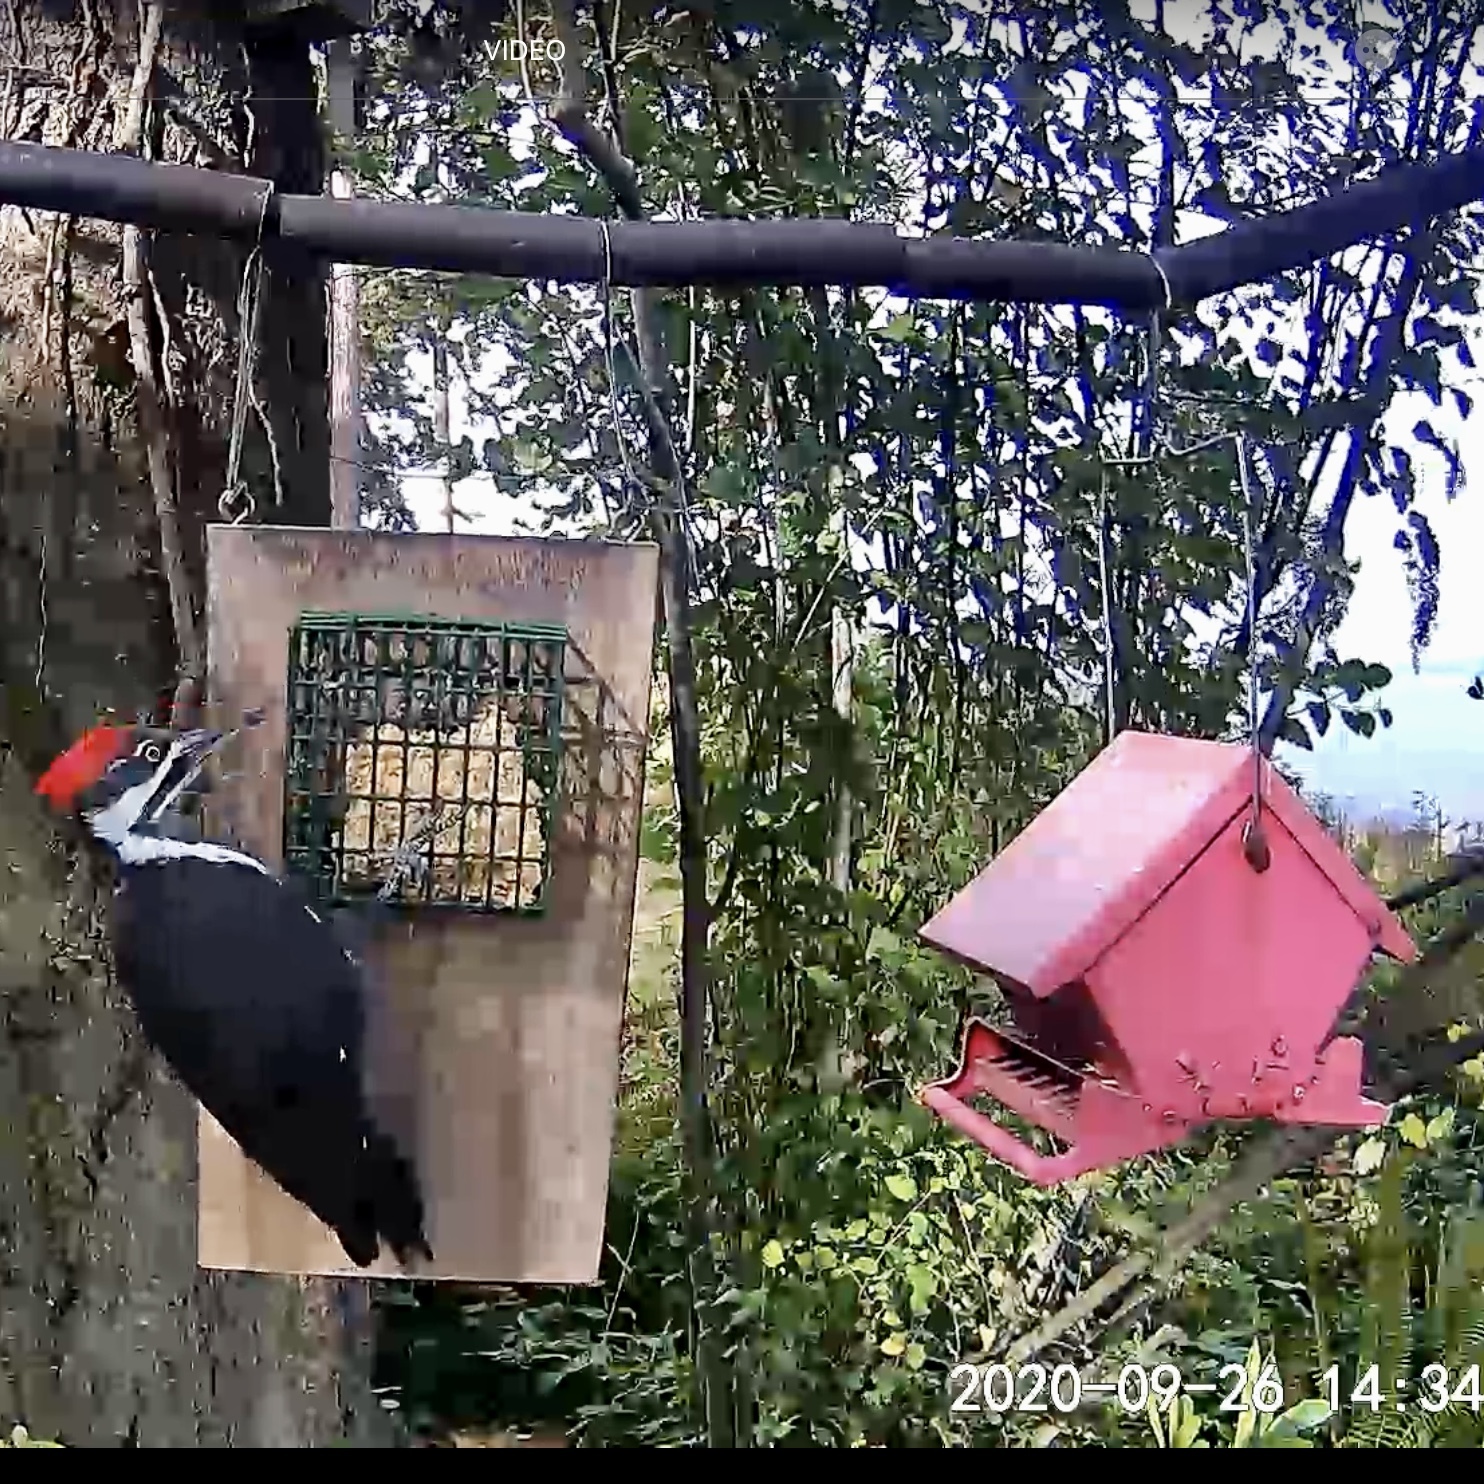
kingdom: Animalia
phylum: Chordata
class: Aves
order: Piciformes
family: Picidae
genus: Dryocopus
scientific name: Dryocopus pileatus
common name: Pileated woodpecker
